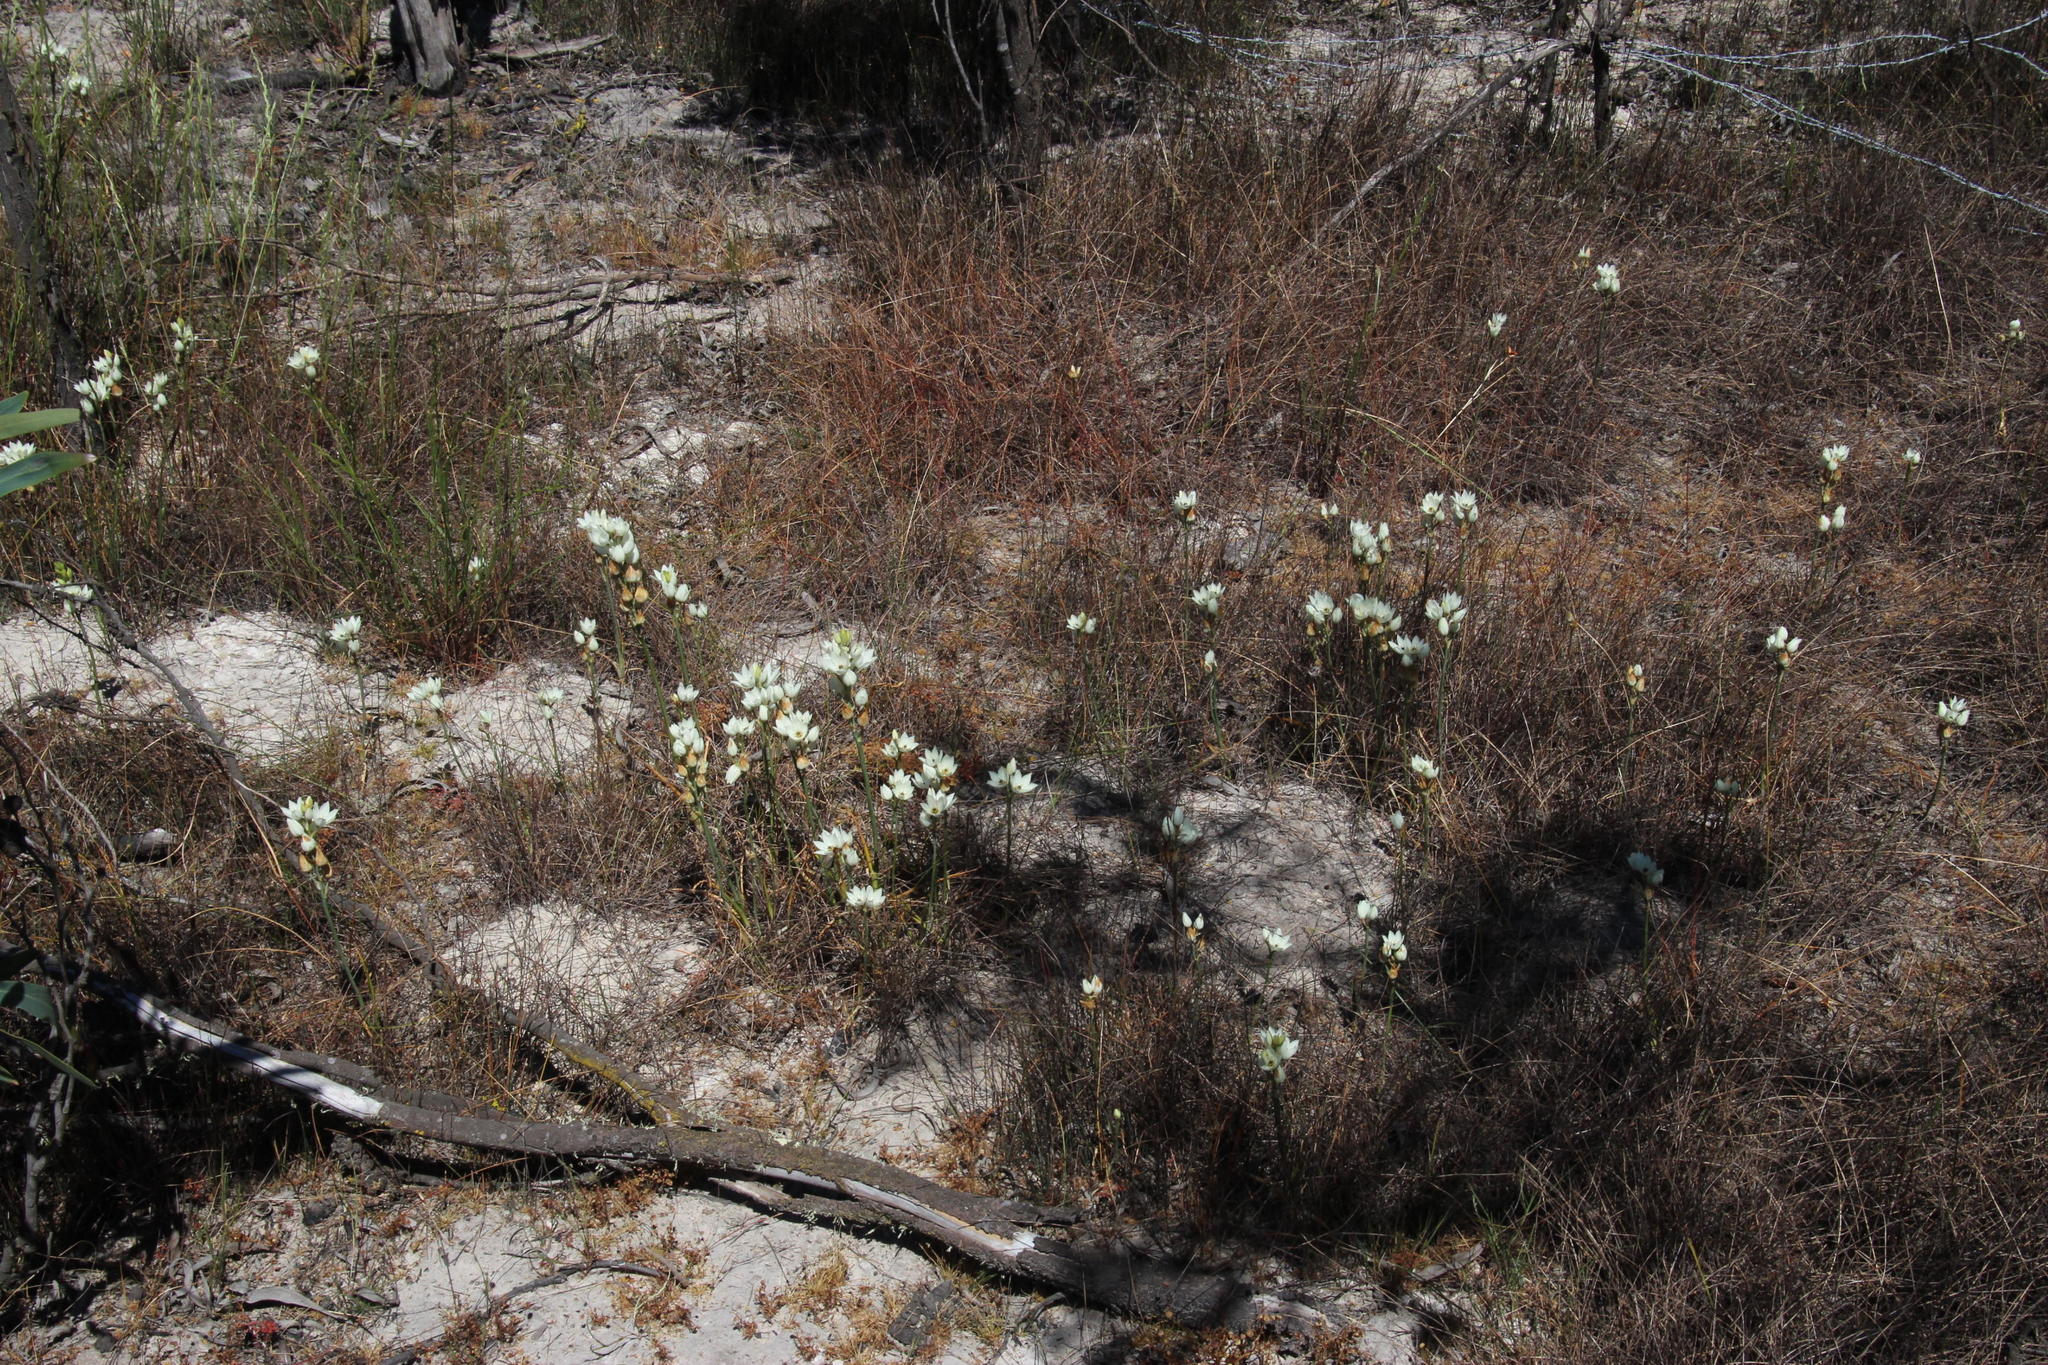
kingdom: Plantae
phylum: Tracheophyta
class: Liliopsida
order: Asparagales
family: Asparagaceae
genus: Ornithogalum
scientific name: Ornithogalum thyrsoides
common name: Chincherinchee
